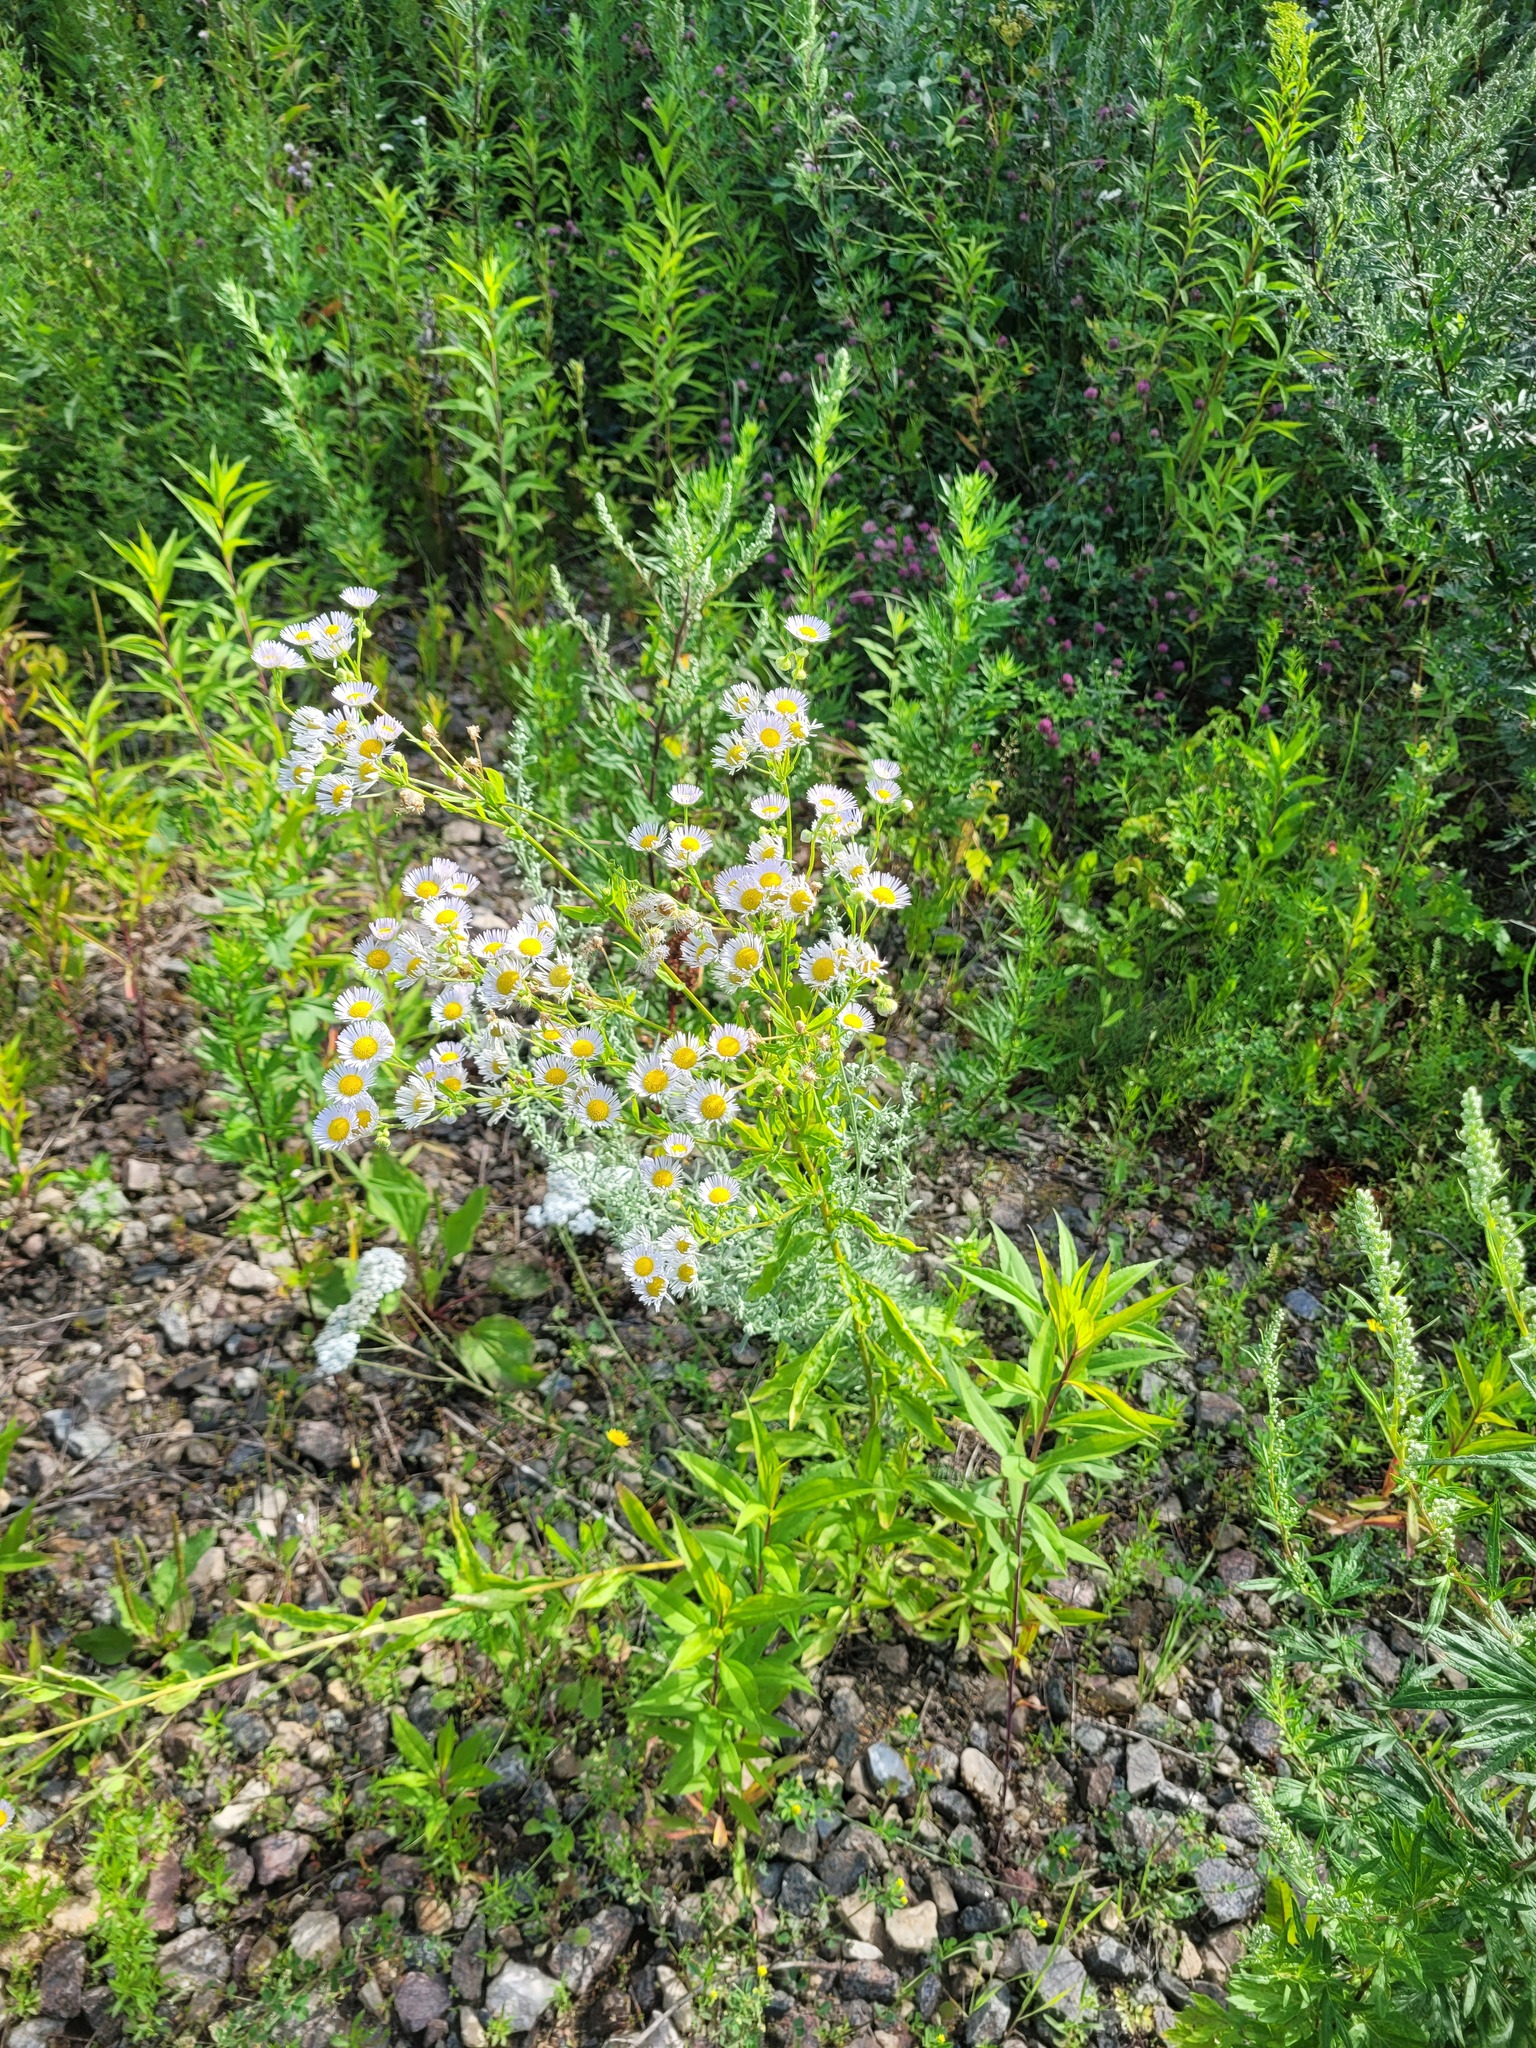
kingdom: Plantae
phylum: Tracheophyta
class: Magnoliopsida
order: Asterales
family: Asteraceae
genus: Erigeron
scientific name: Erigeron annuus
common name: Tall fleabane
